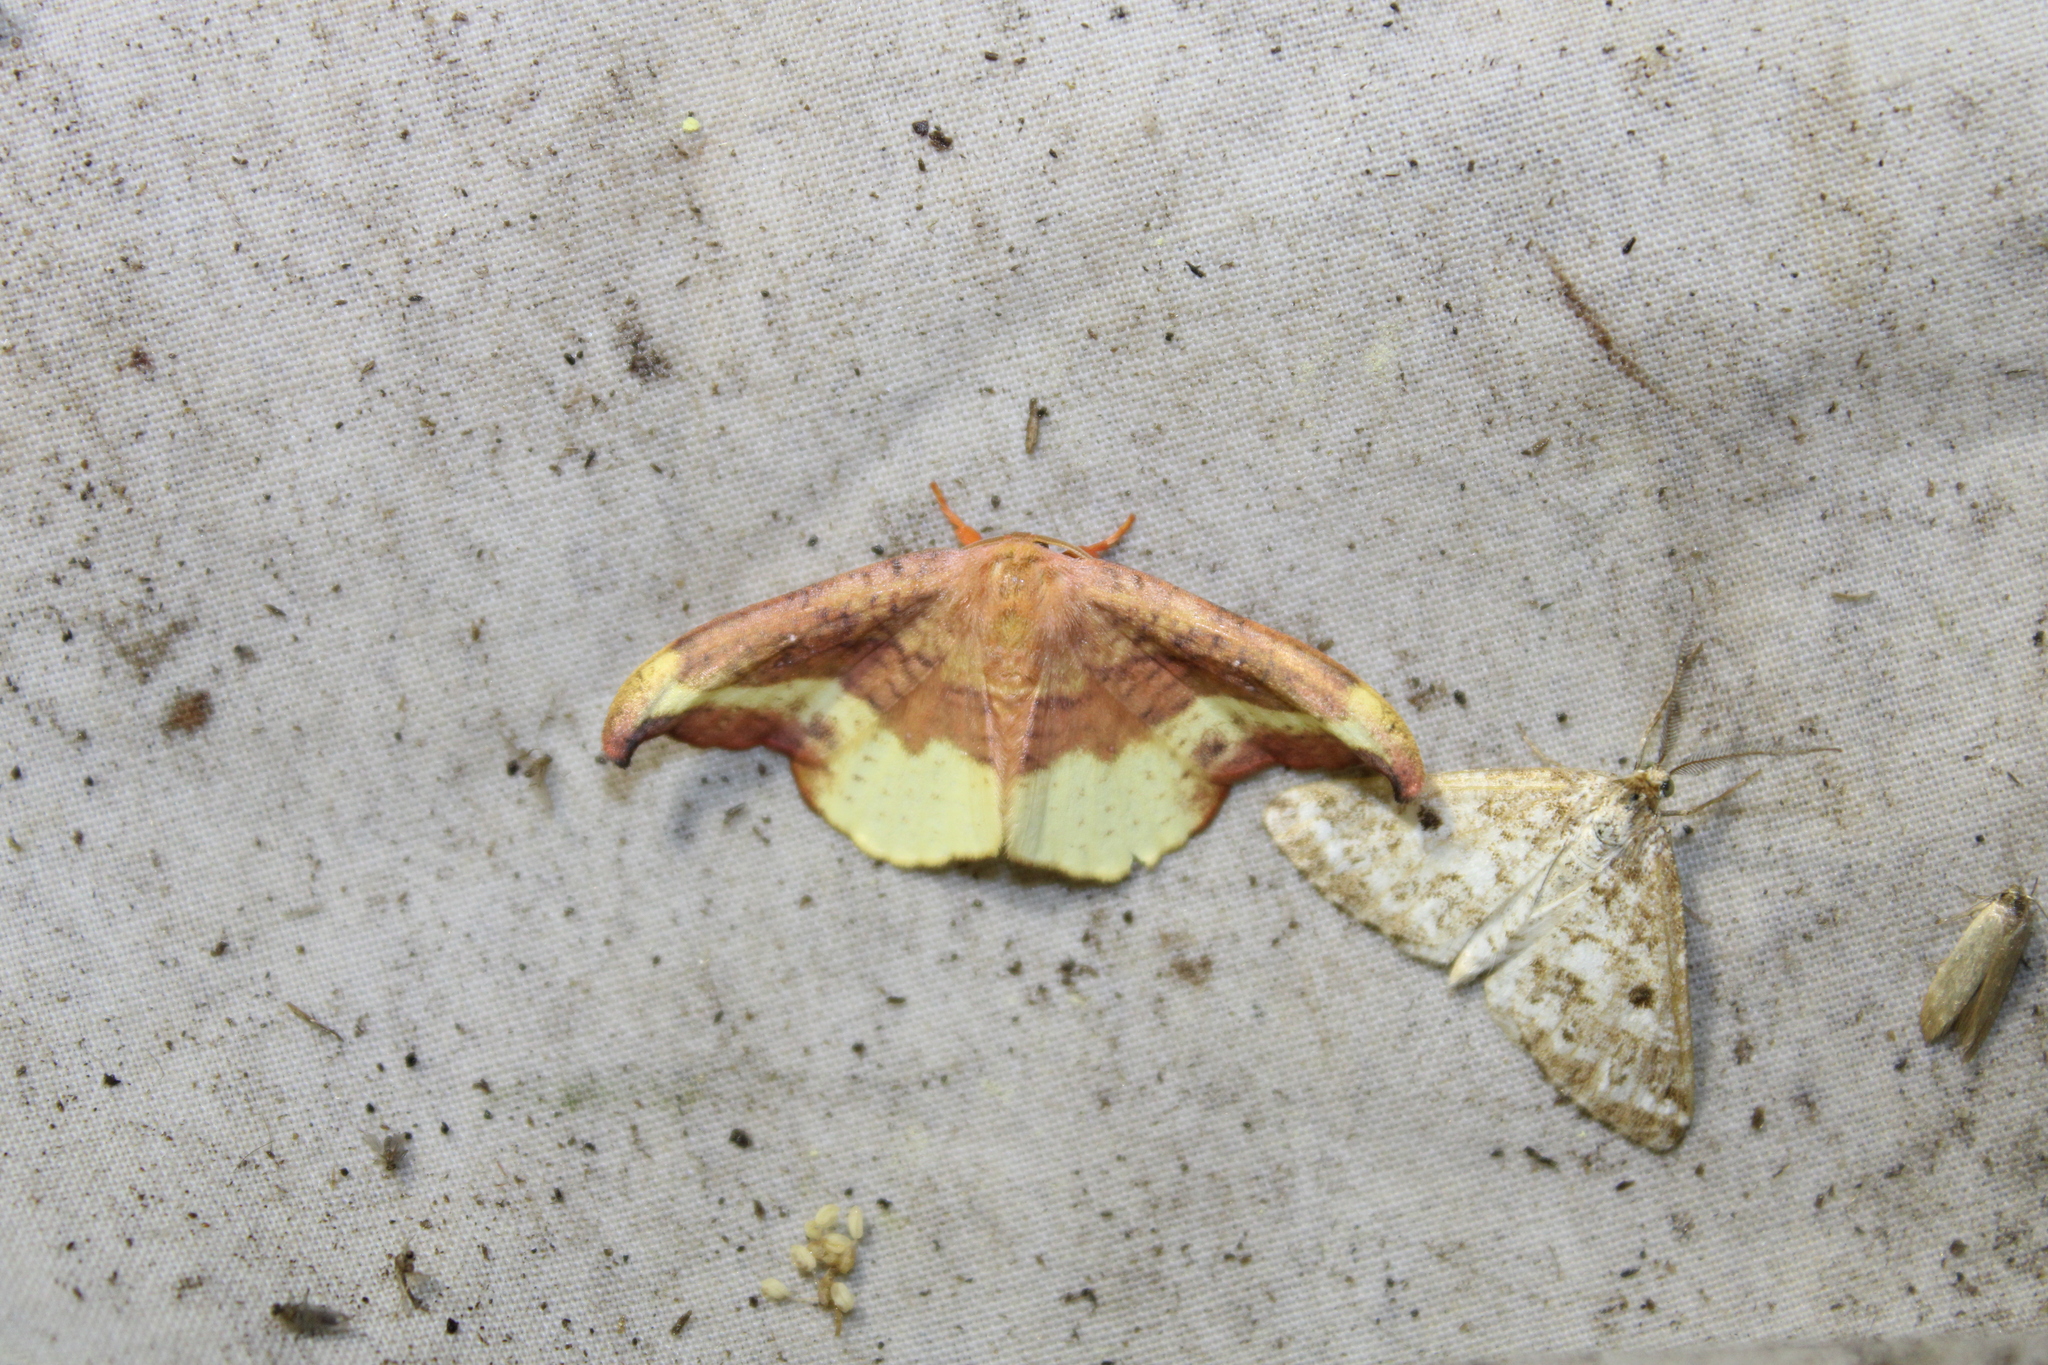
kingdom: Animalia
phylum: Arthropoda
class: Insecta
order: Lepidoptera
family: Drepanidae
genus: Oreta
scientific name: Oreta rosea
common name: Rose hooktip
